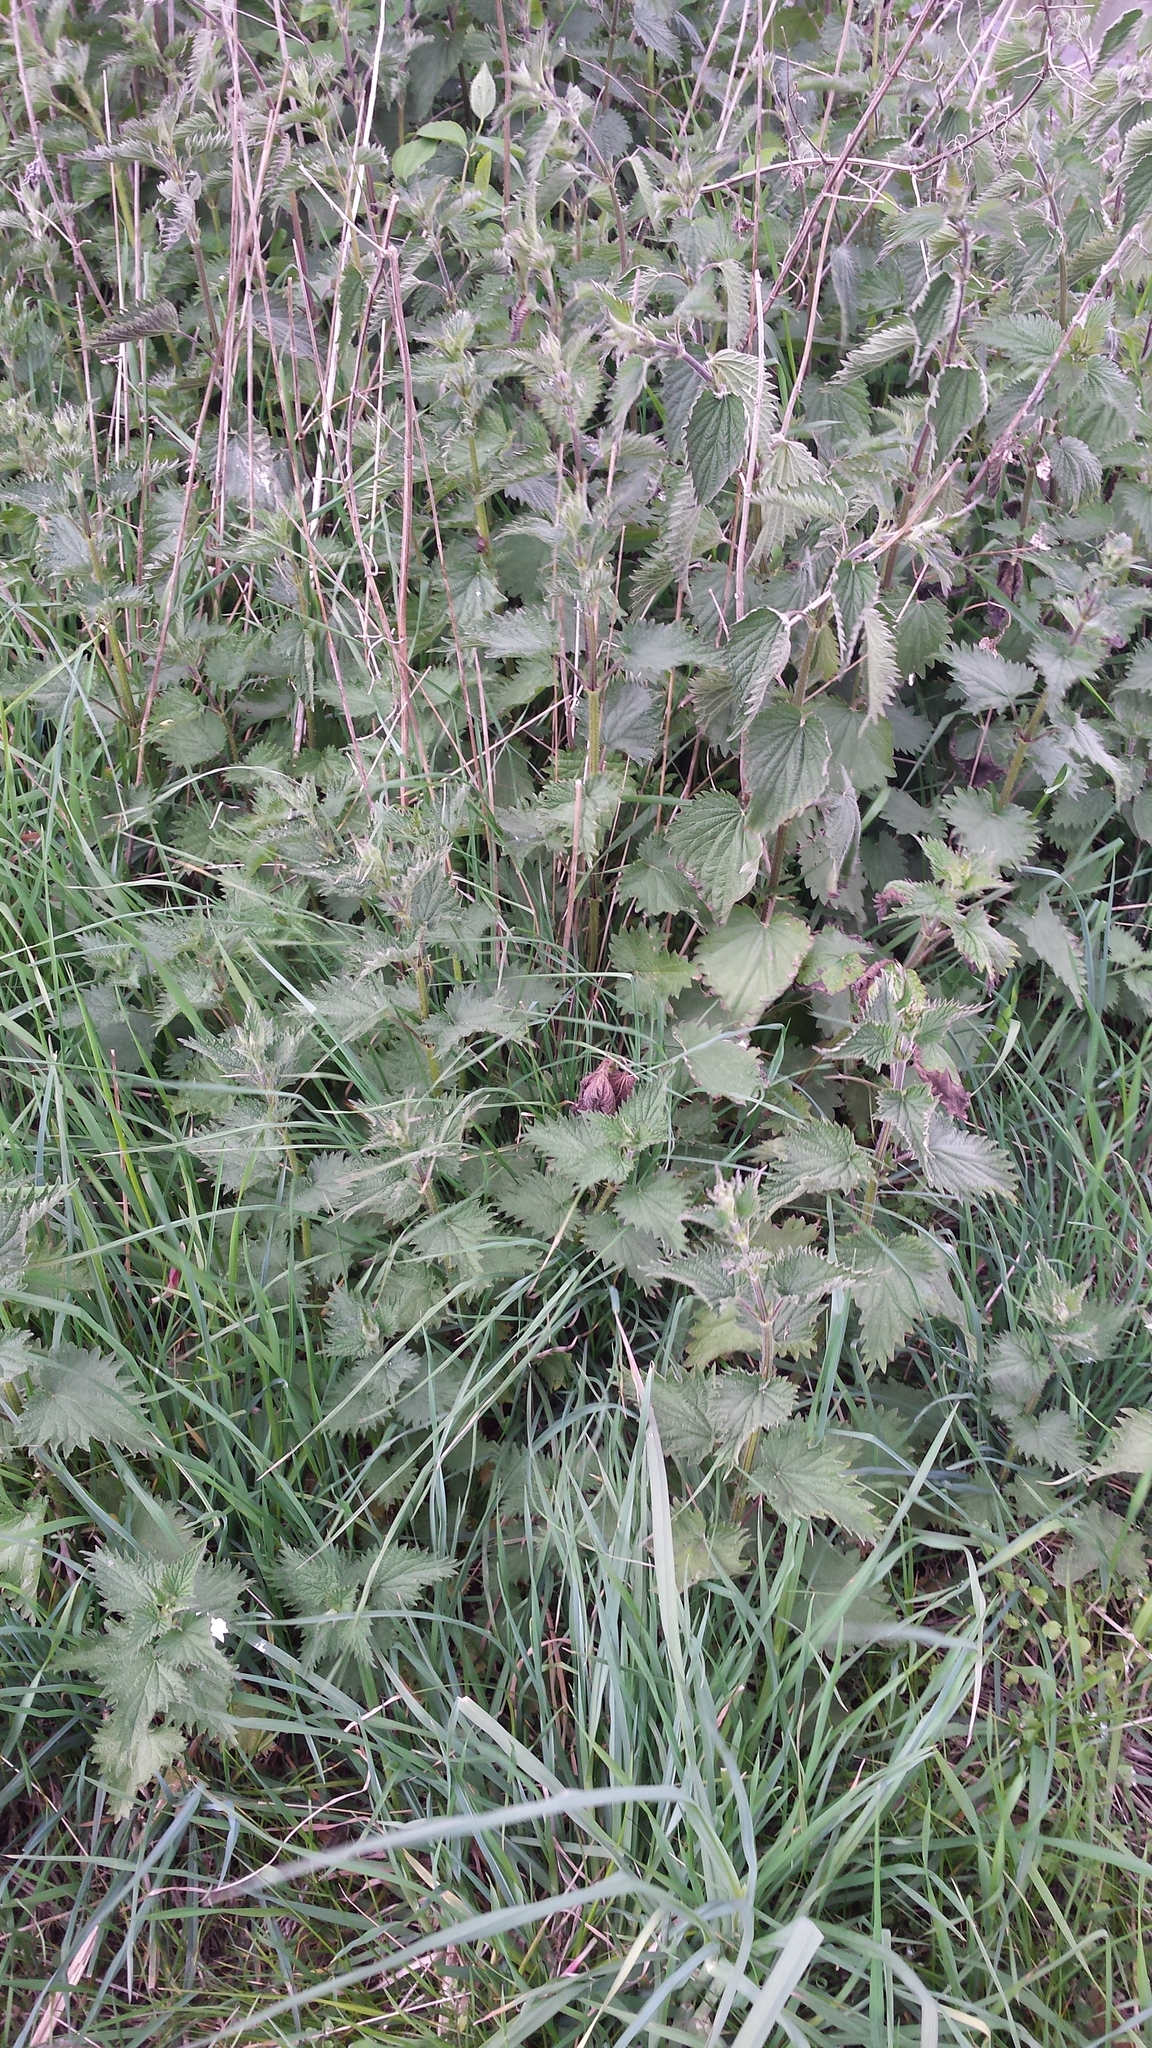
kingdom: Plantae
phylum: Tracheophyta
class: Magnoliopsida
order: Rosales
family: Urticaceae
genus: Urtica
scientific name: Urtica dioica
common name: Common nettle
